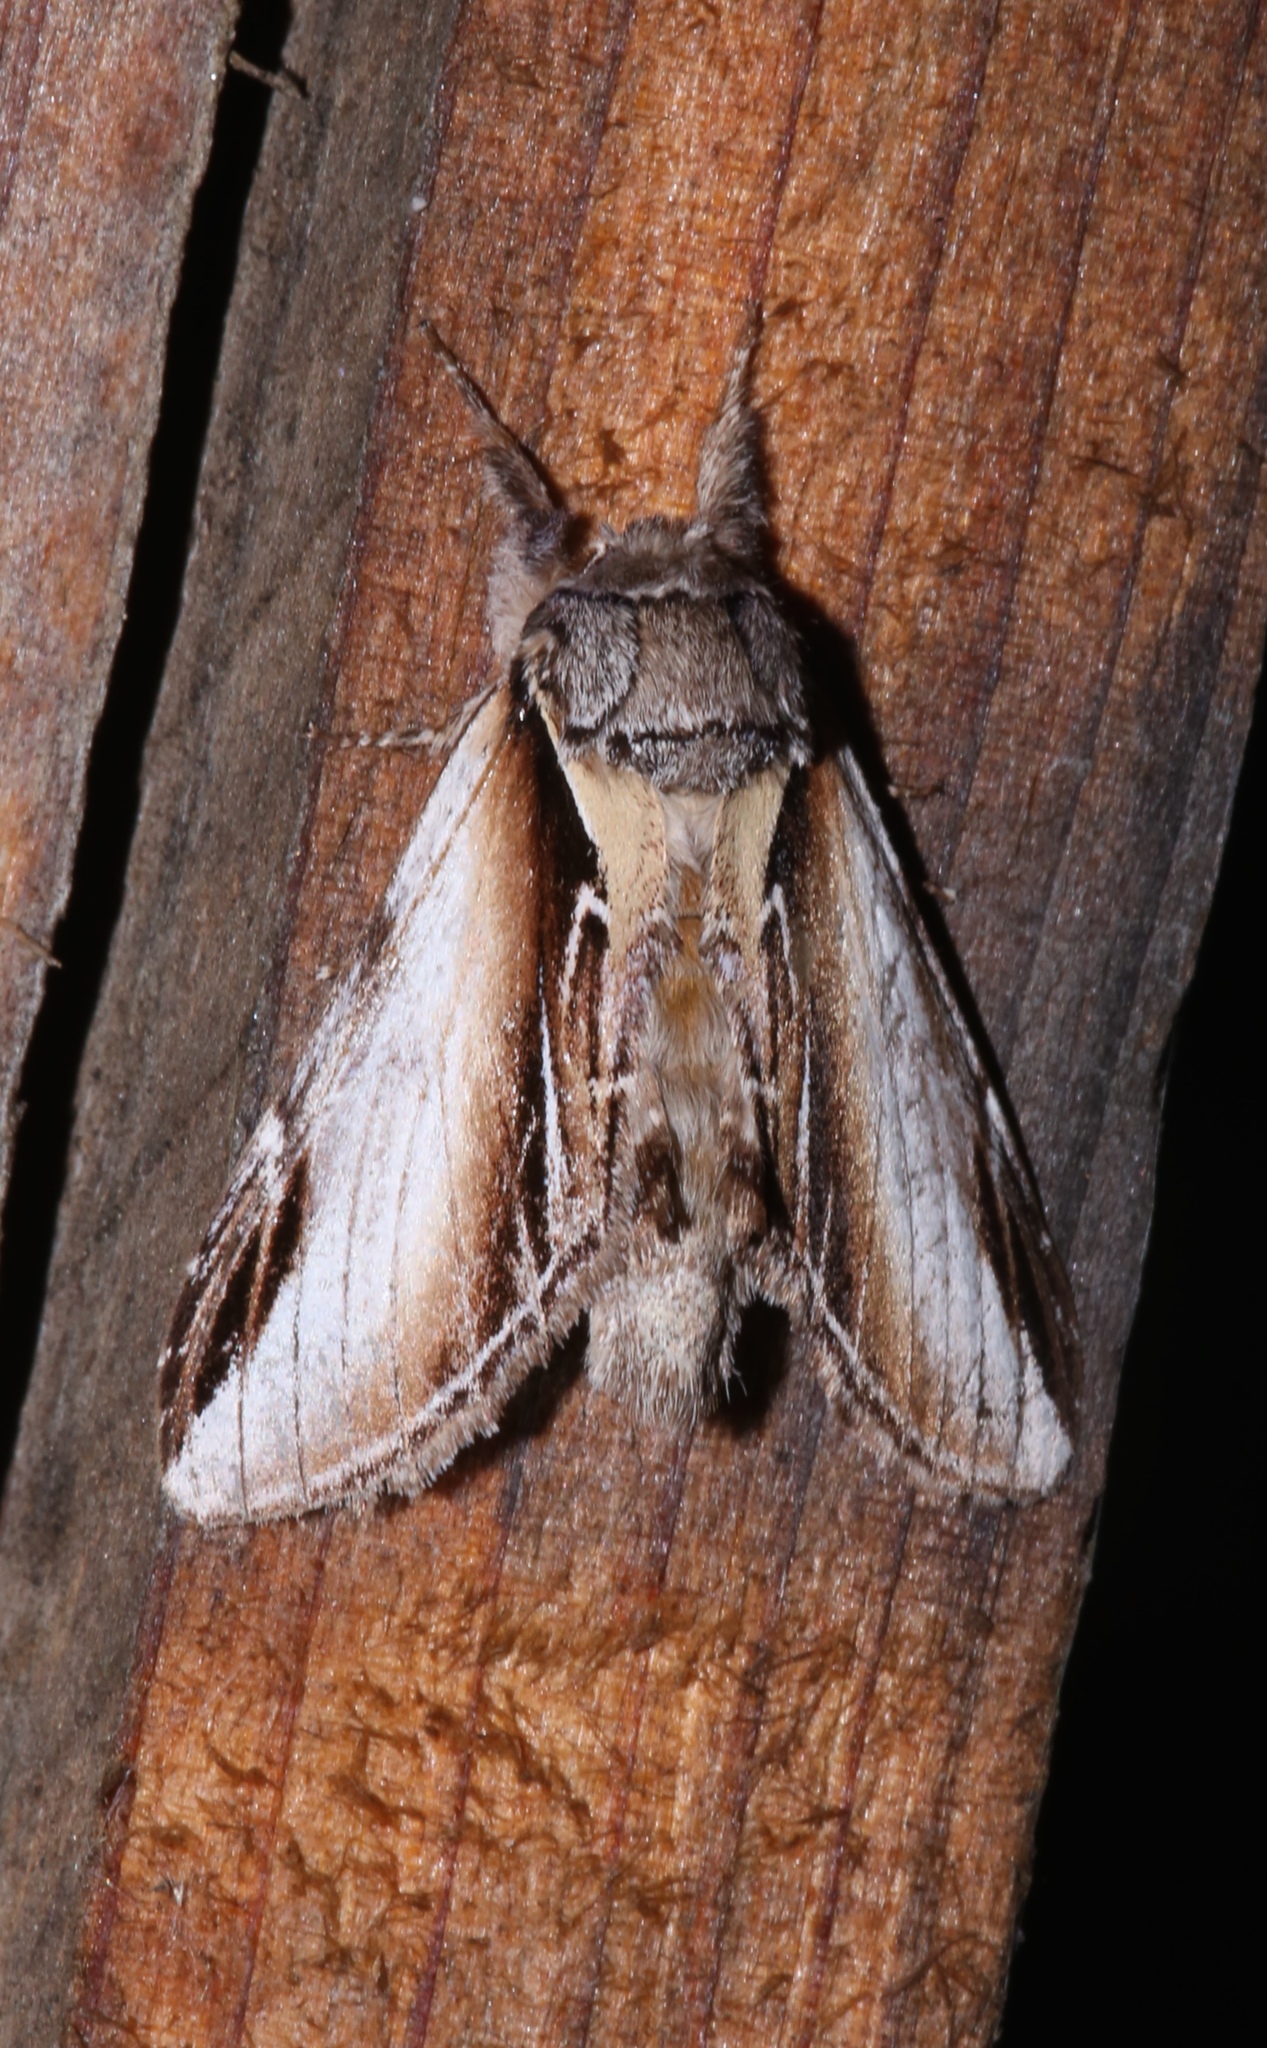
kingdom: Animalia
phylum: Arthropoda
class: Insecta
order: Lepidoptera
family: Notodontidae
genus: Pheosia
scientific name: Pheosia rimosa
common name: Black-rimmed prominent
